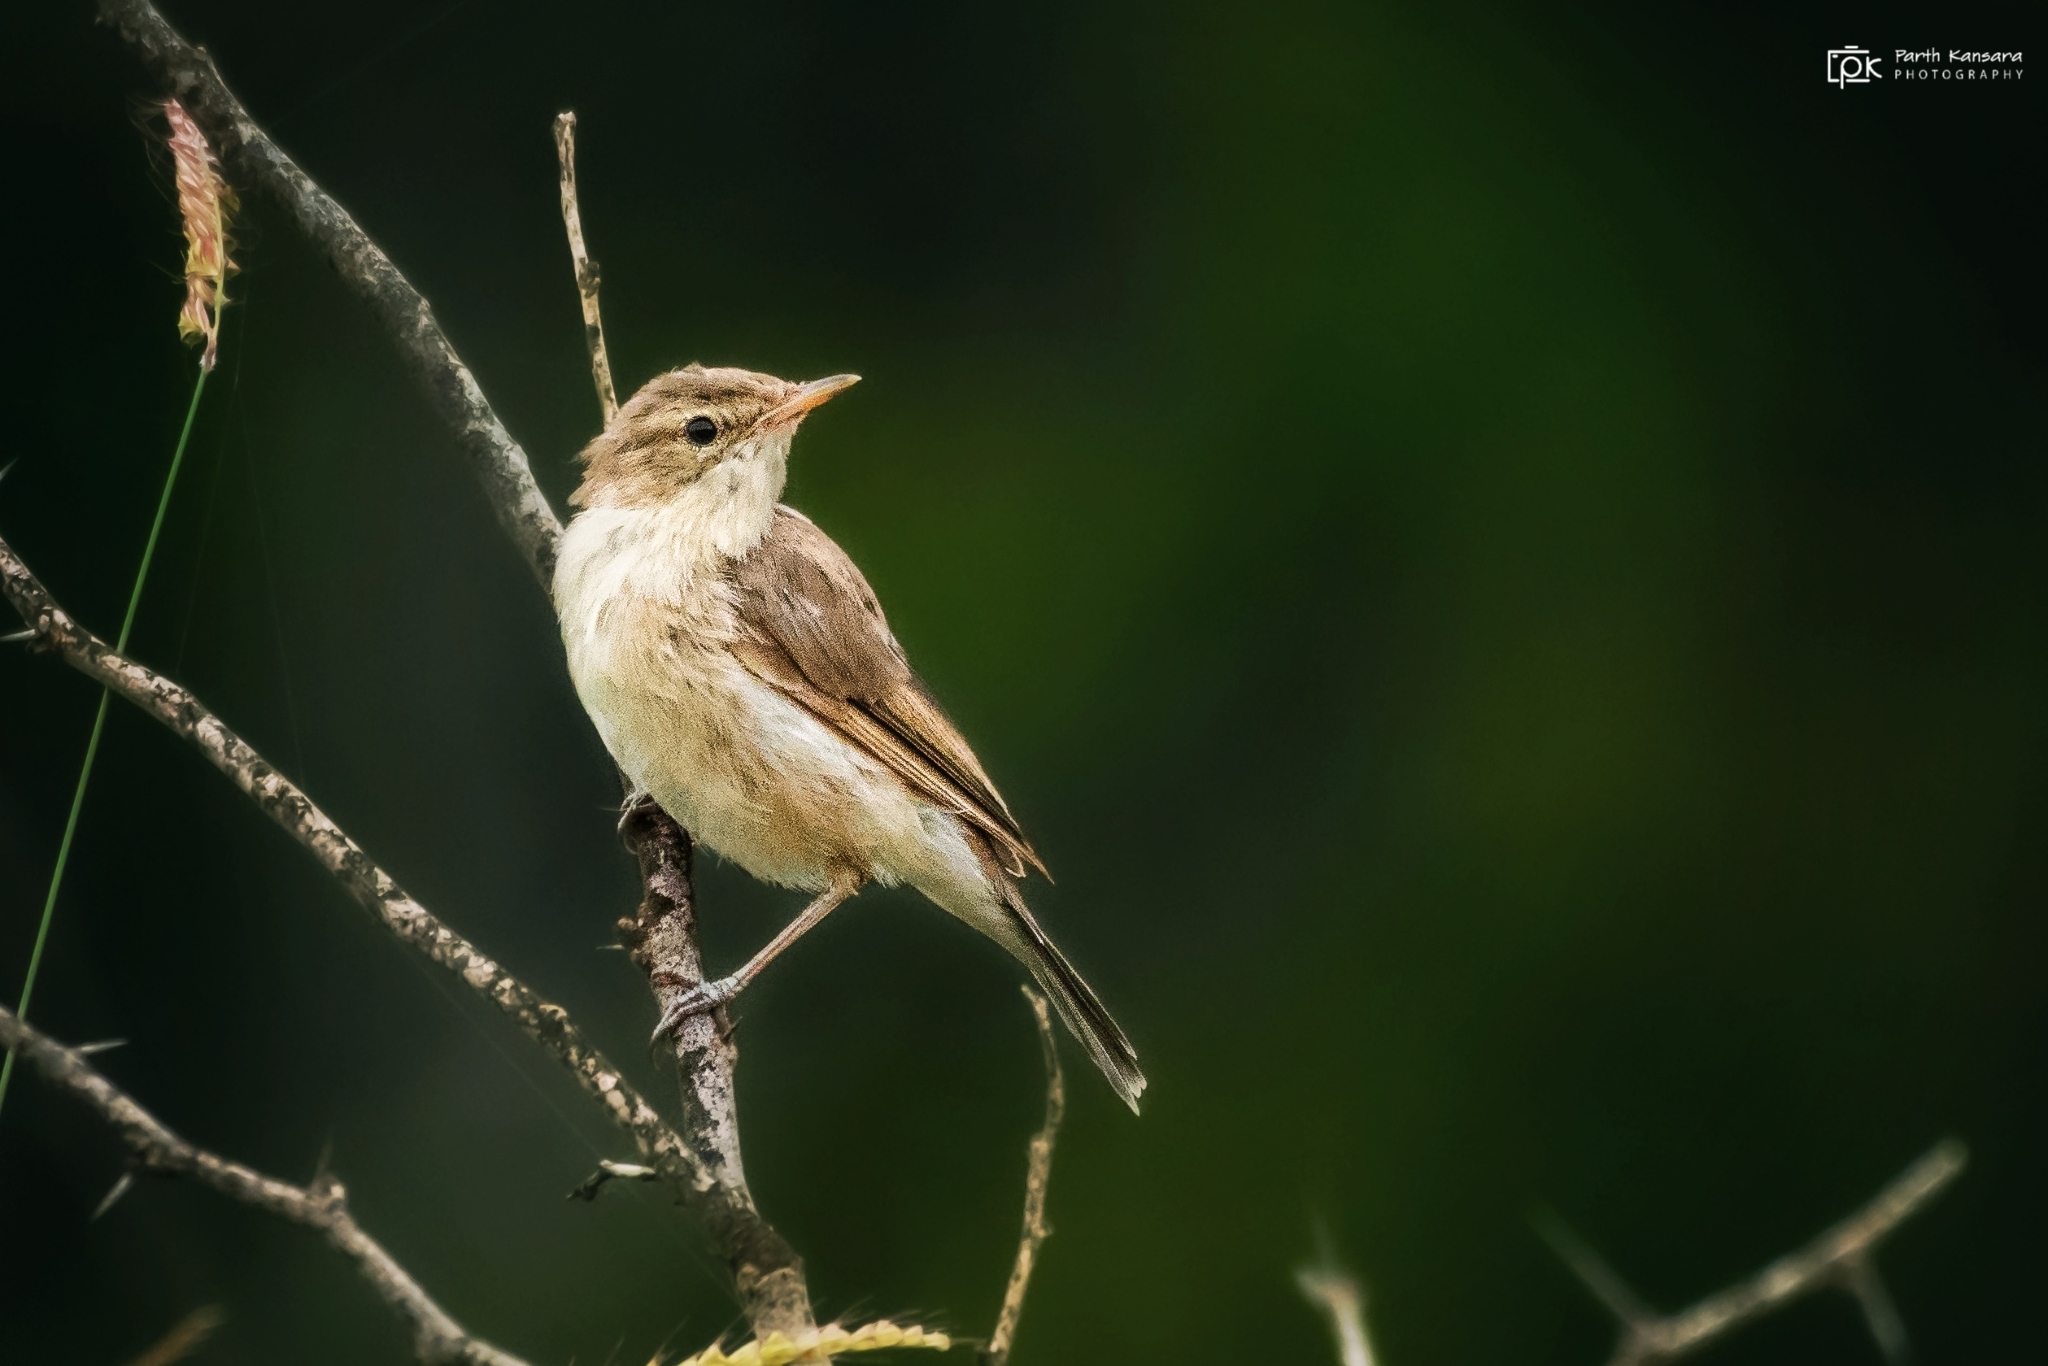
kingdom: Animalia
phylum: Chordata
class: Aves
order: Passeriformes
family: Acrocephalidae
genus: Iduna
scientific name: Iduna caligata
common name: Booted warbler
